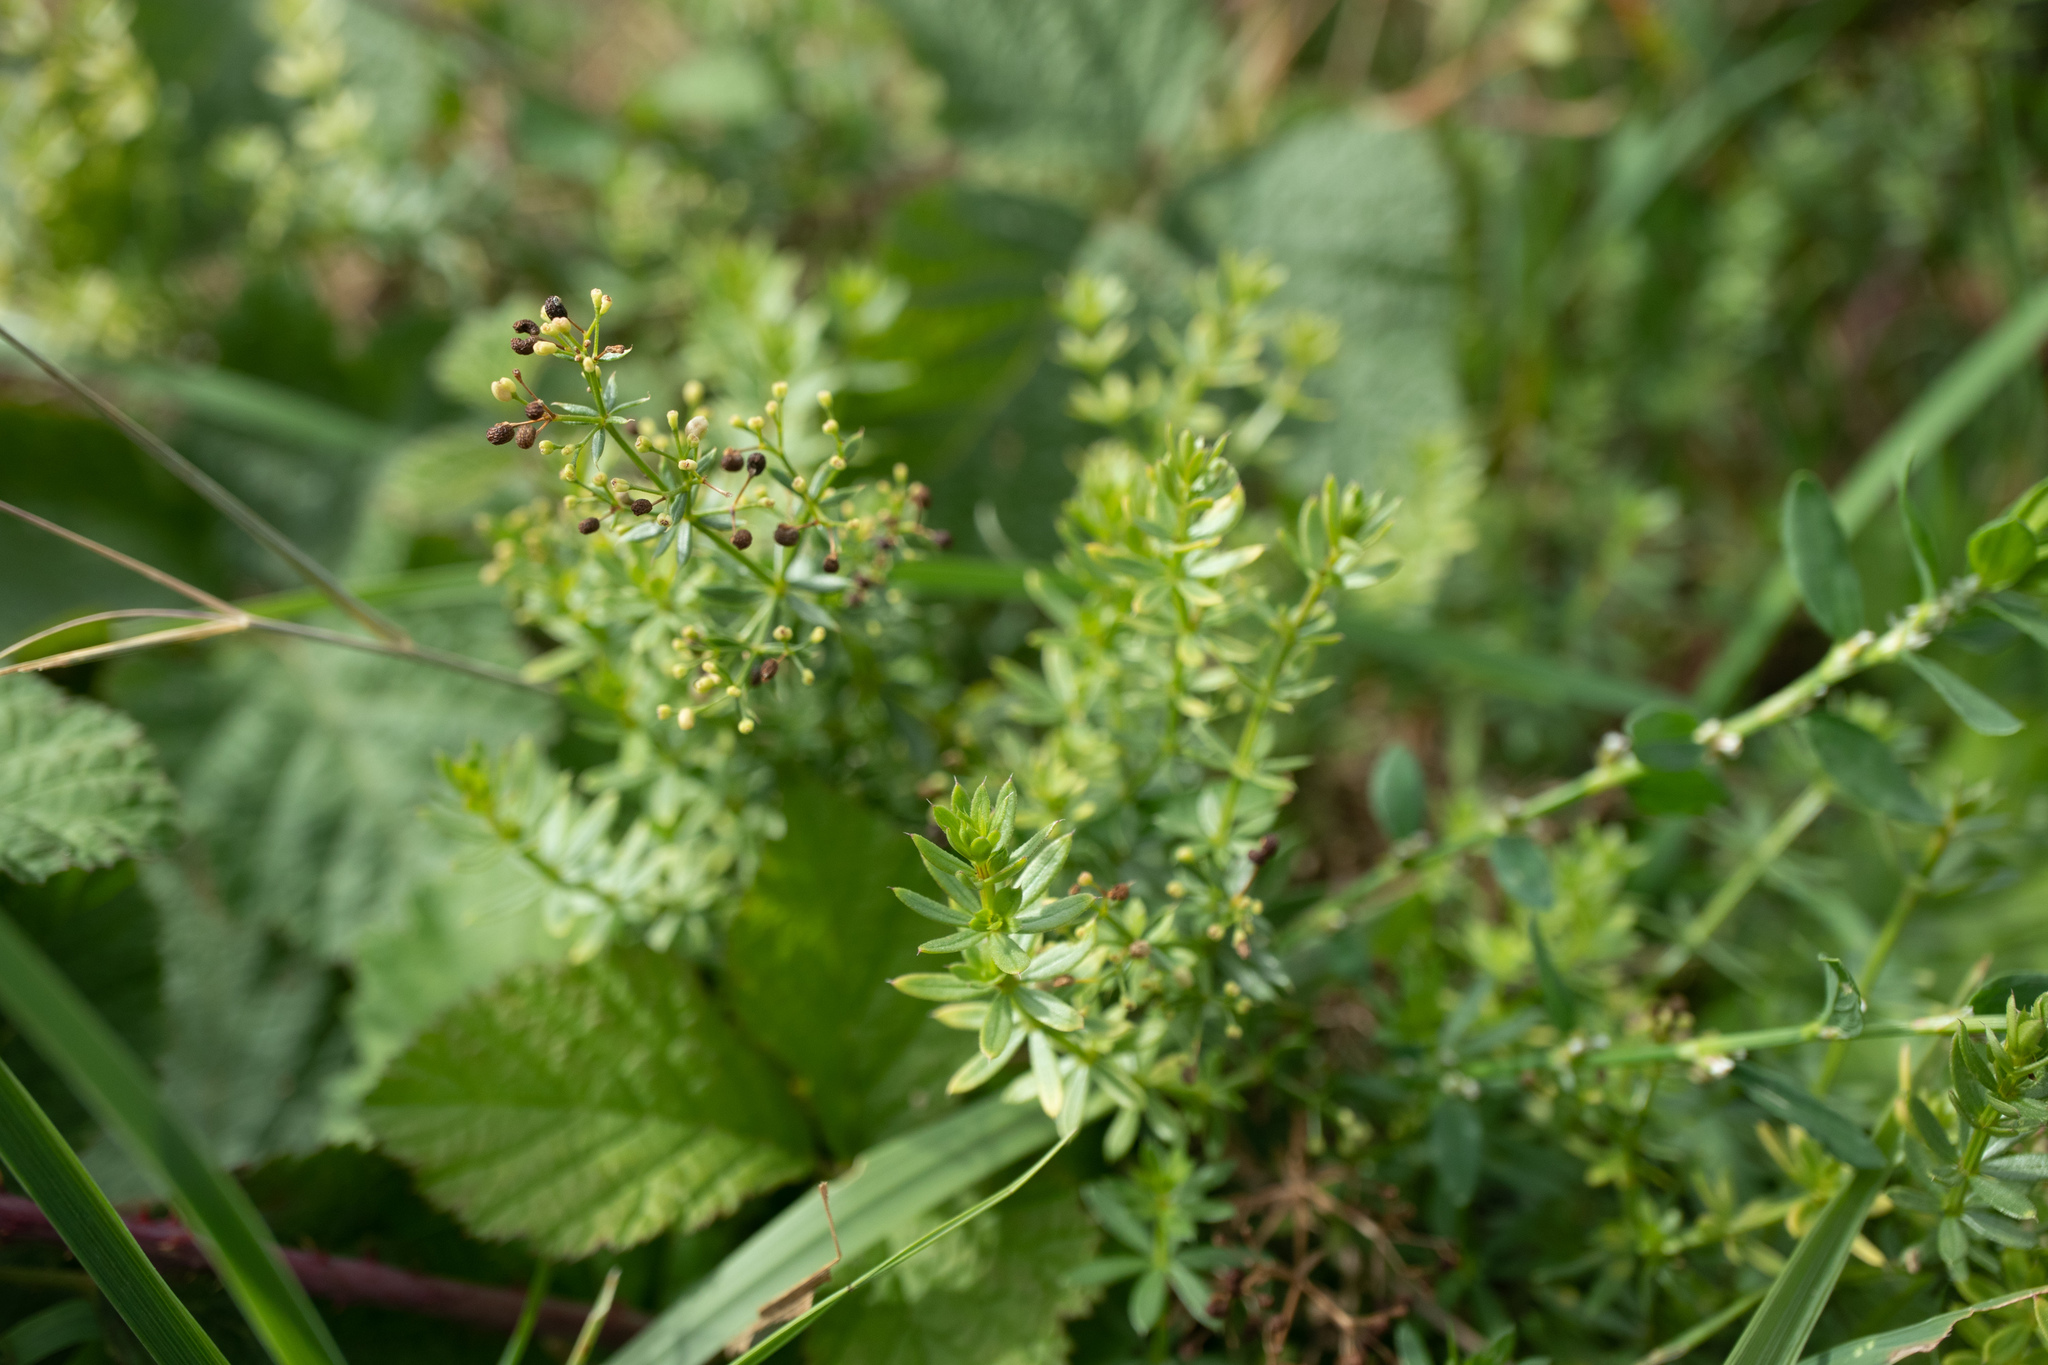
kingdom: Plantae
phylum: Tracheophyta
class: Magnoliopsida
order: Gentianales
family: Rubiaceae
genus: Galium
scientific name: Galium mollugo
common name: Hedge bedstraw
